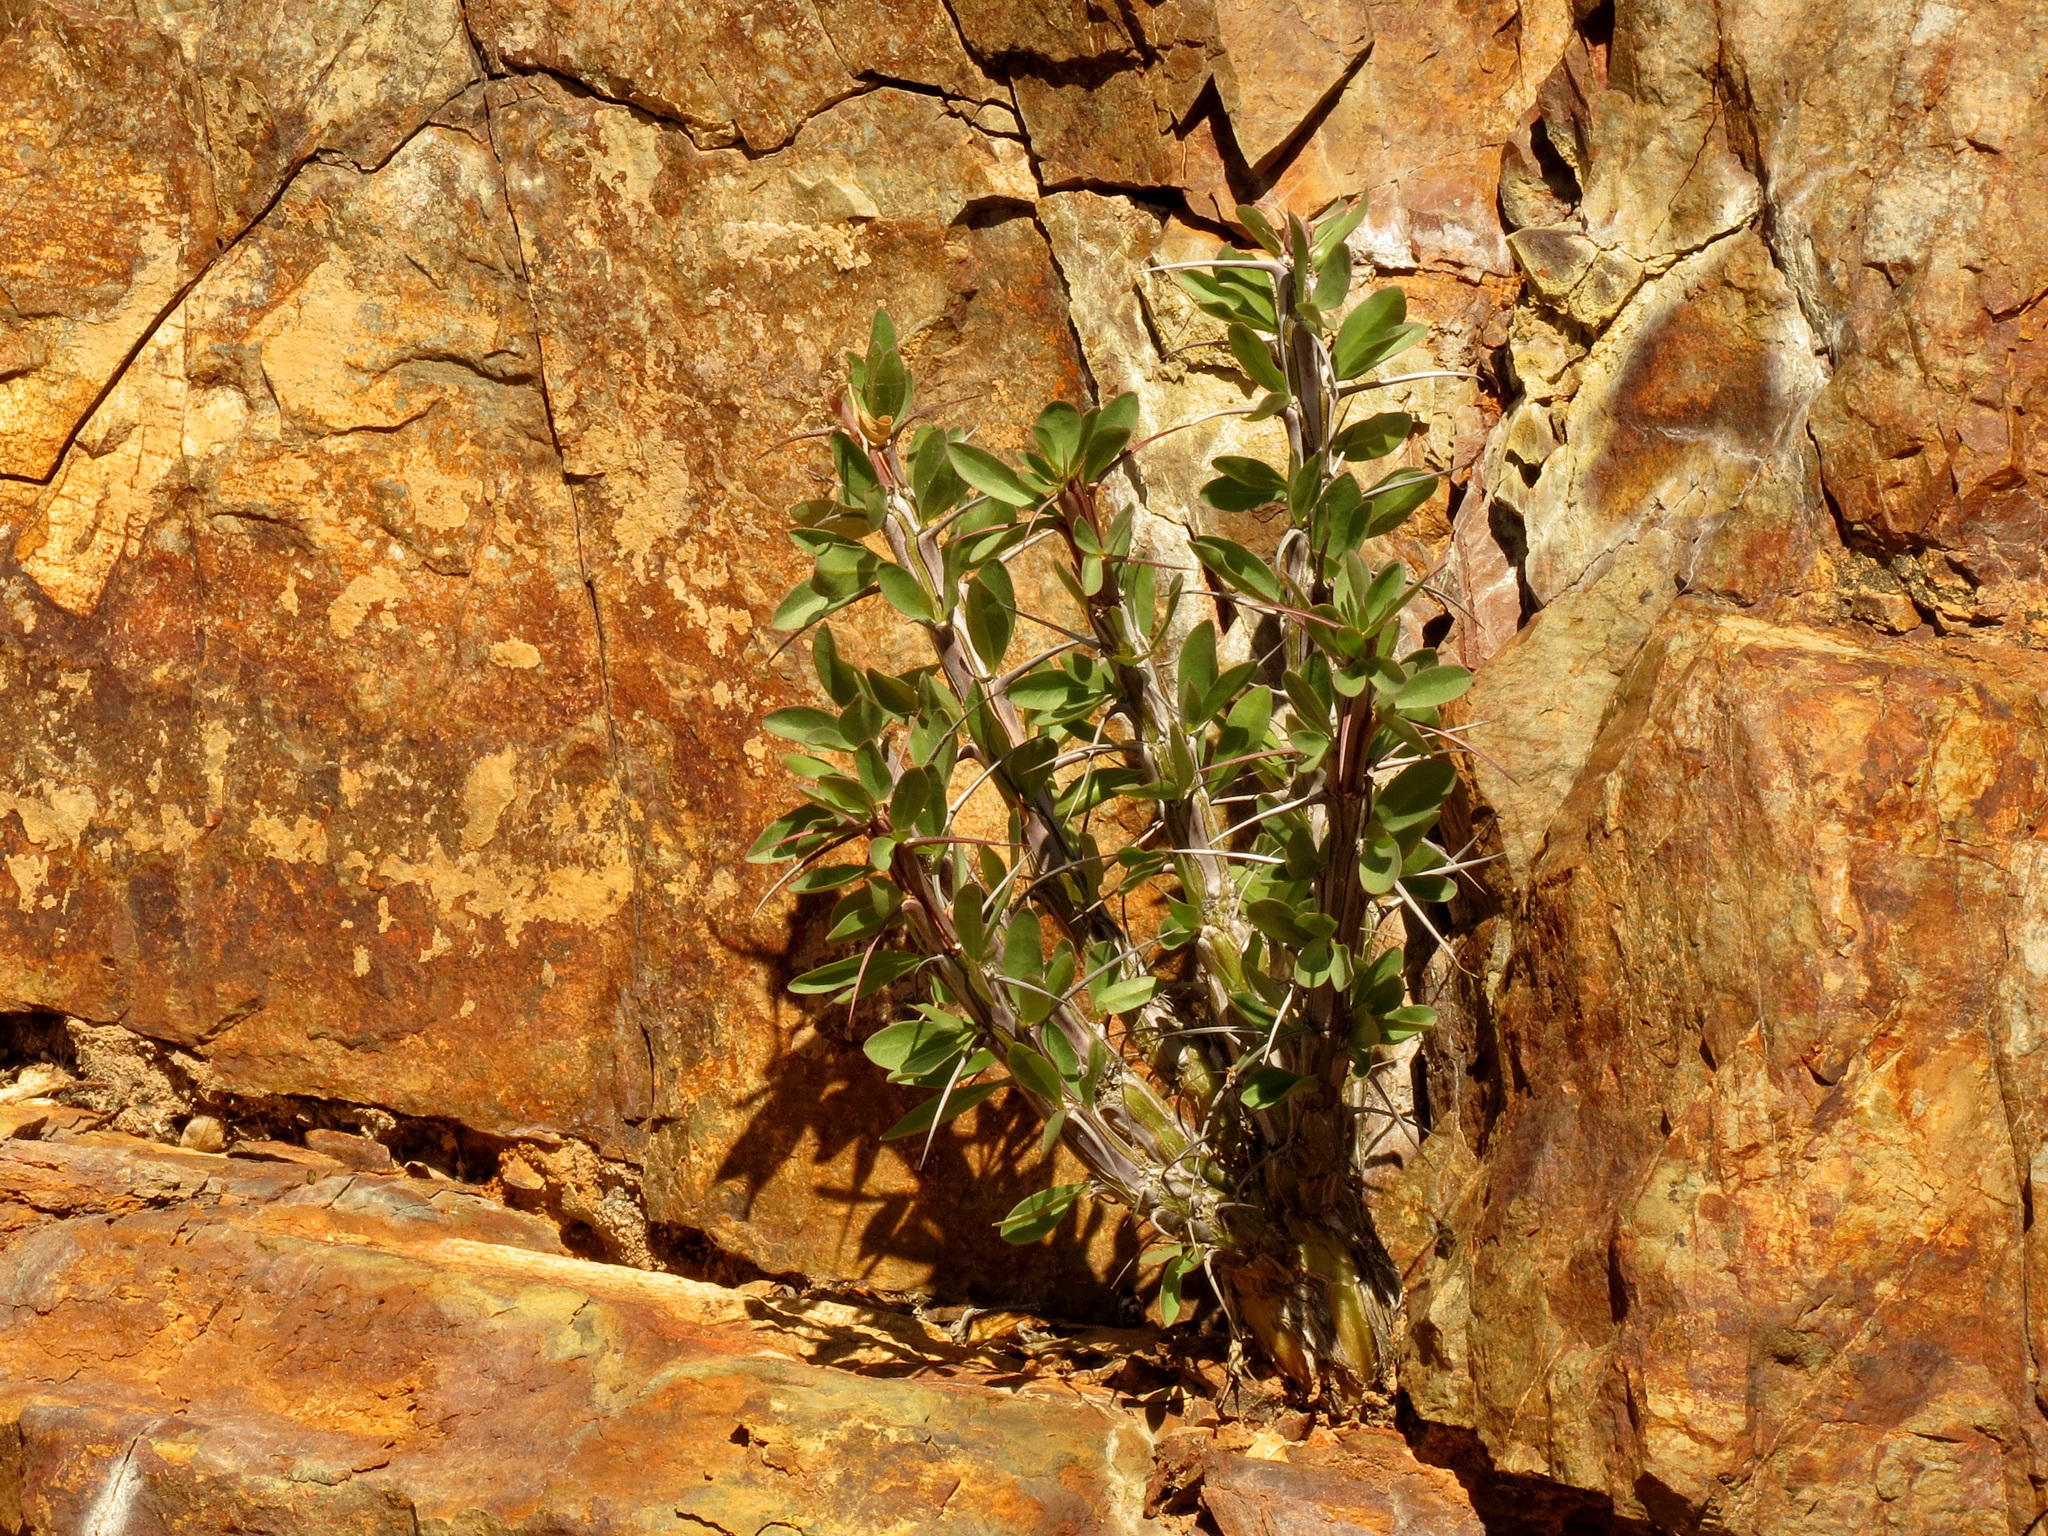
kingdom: Plantae
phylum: Tracheophyta
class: Magnoliopsida
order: Ericales
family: Fouquieriaceae
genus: Fouquieria
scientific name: Fouquieria splendens
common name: Vine-cactus
